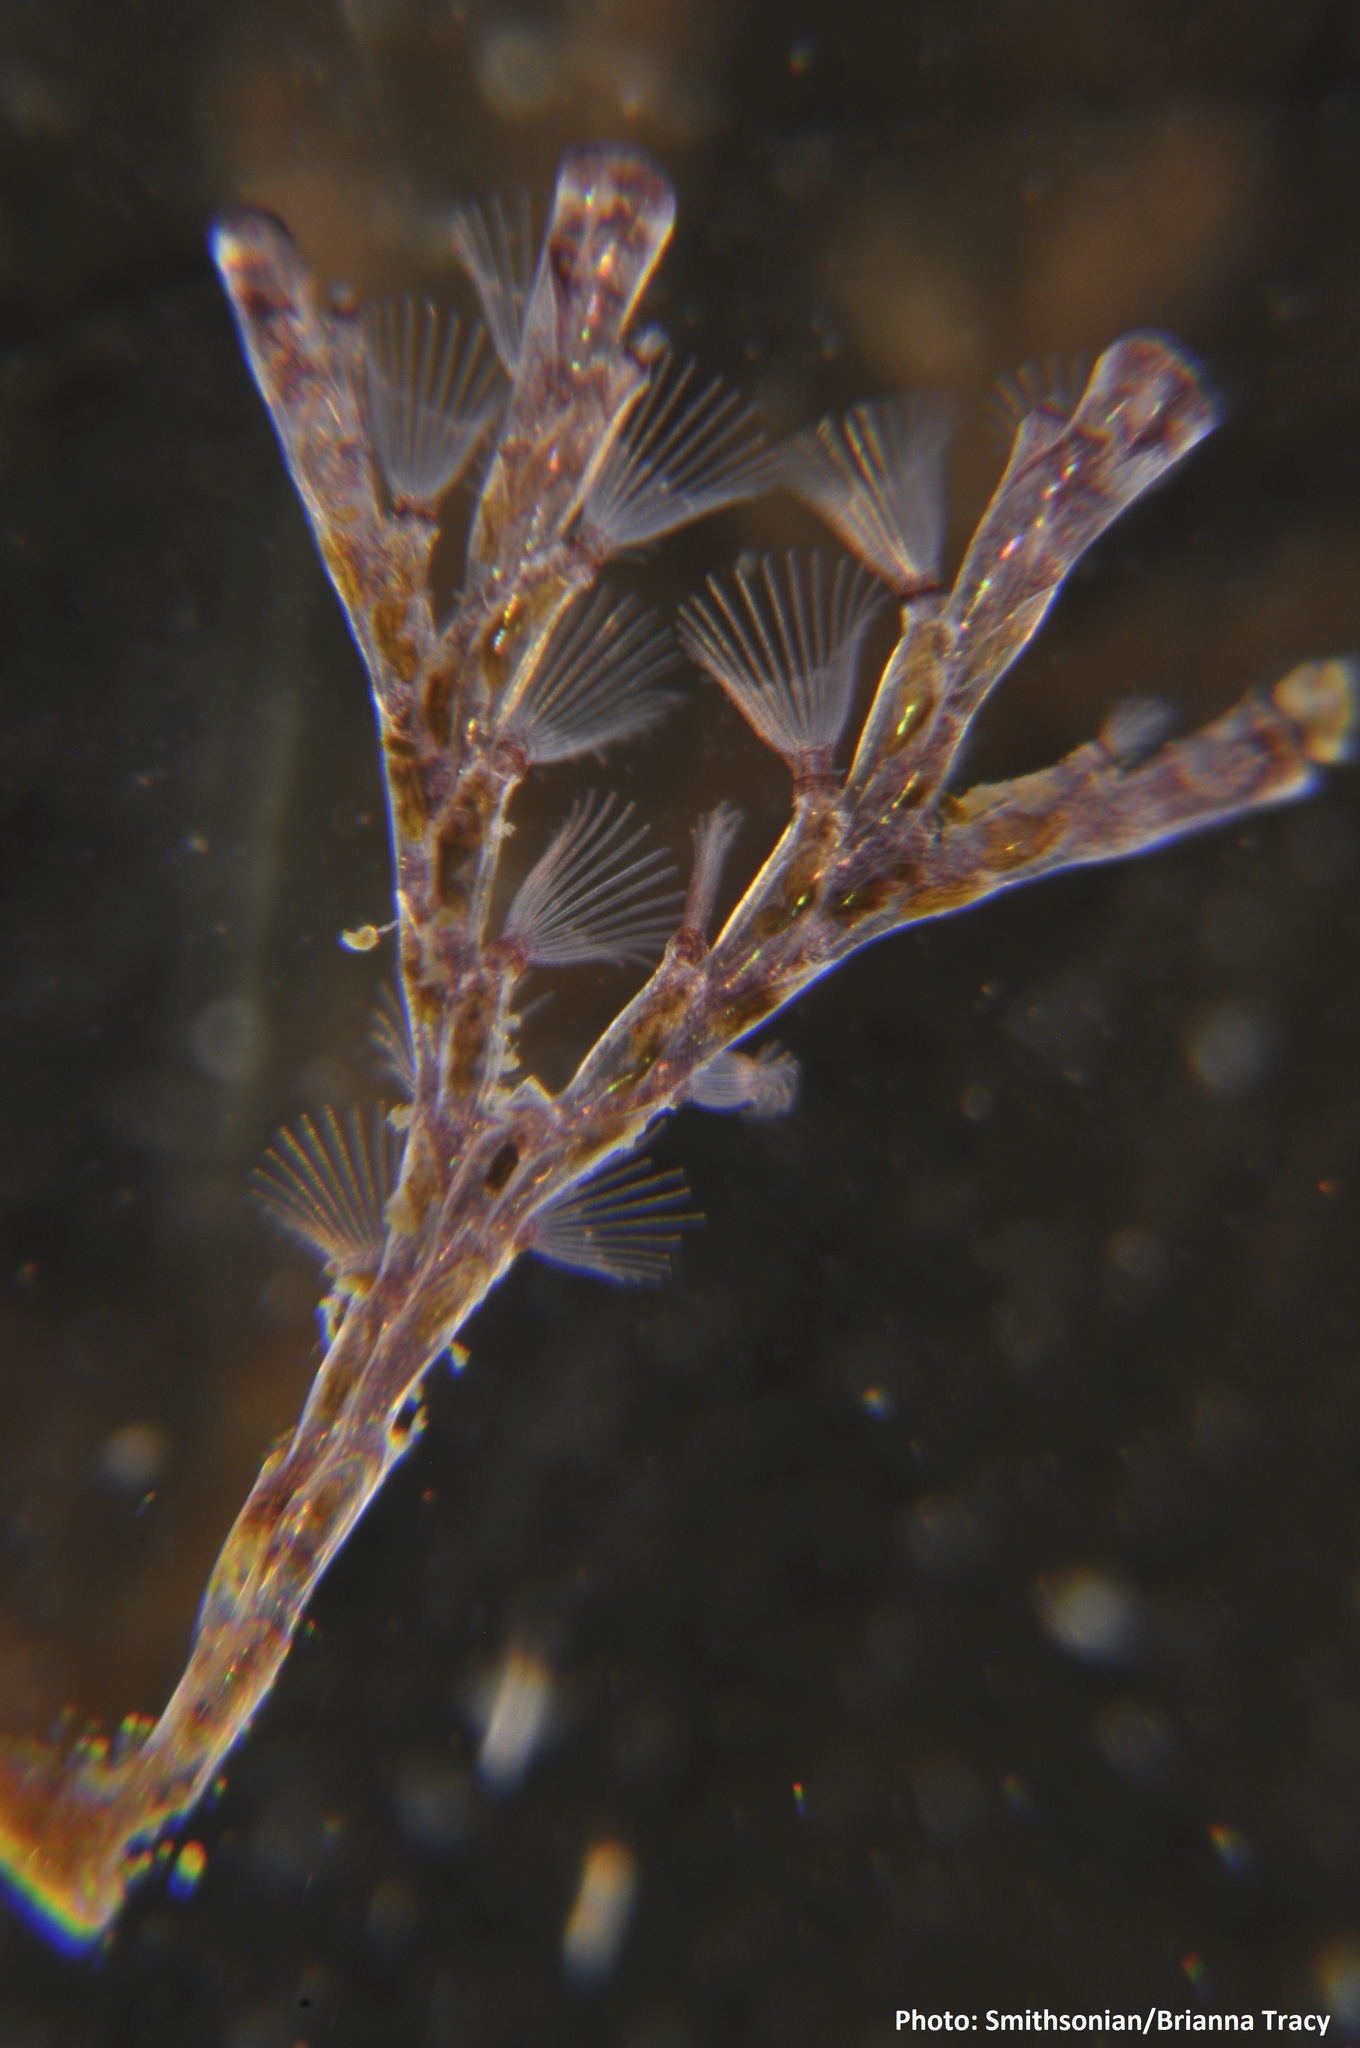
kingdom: Animalia
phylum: Bryozoa
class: Gymnolaemata
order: Cheilostomatida
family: Bugulidae
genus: Bugula
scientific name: Bugula neritina
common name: Brown bryozoan
